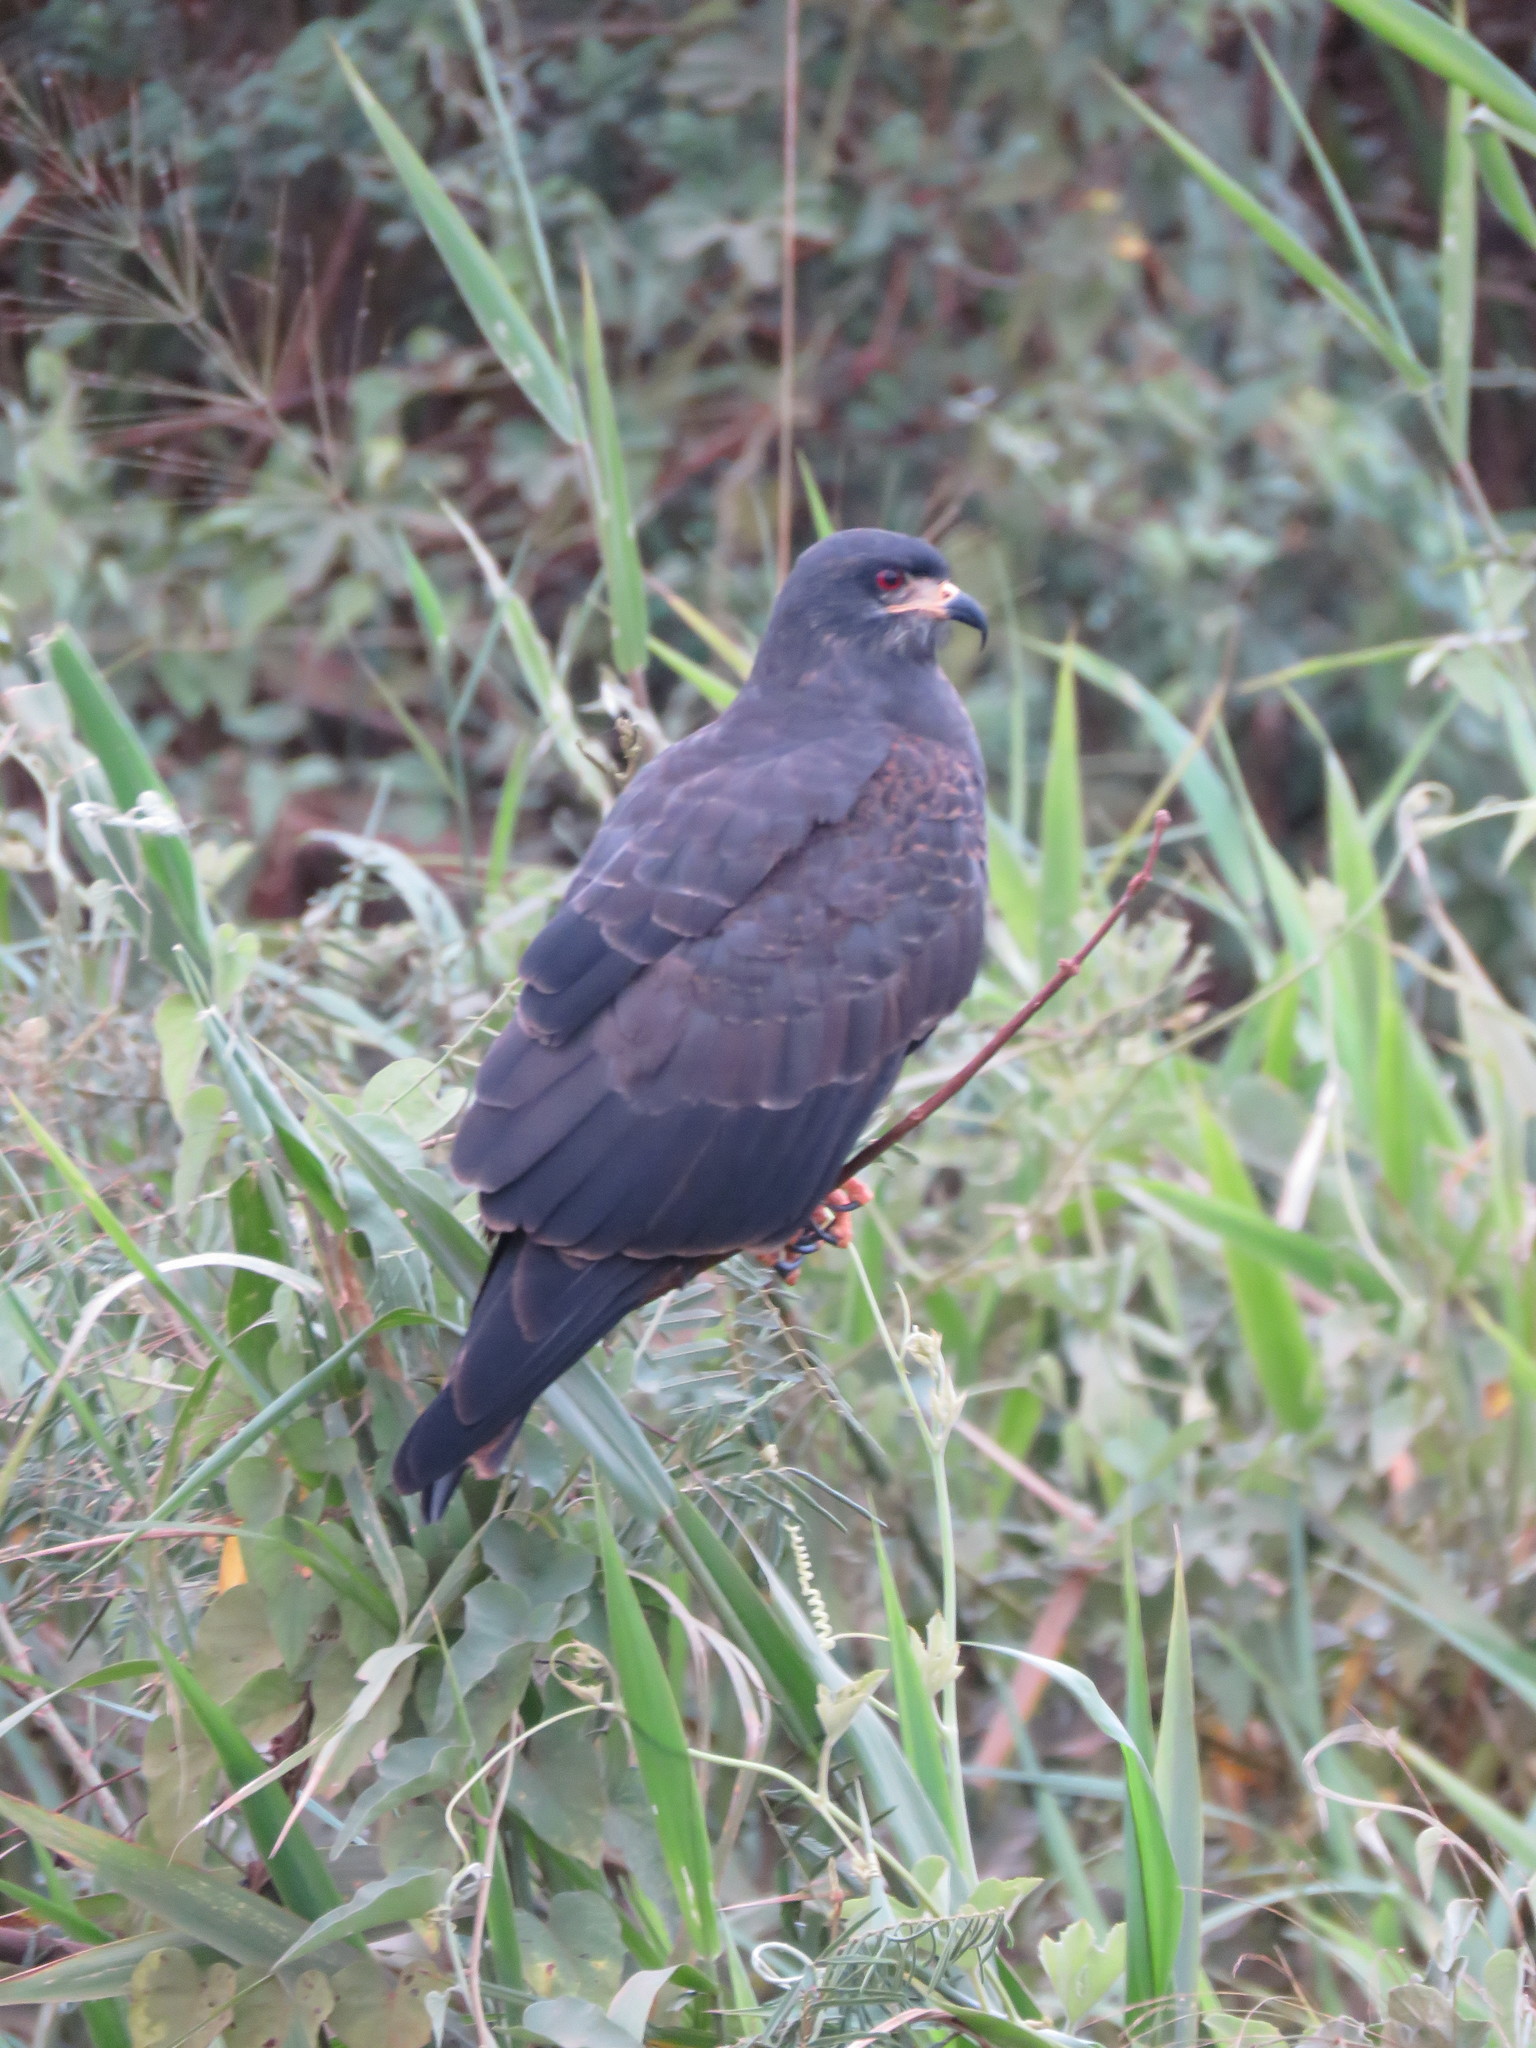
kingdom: Animalia
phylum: Chordata
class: Aves
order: Accipitriformes
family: Accipitridae
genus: Rostrhamus
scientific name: Rostrhamus sociabilis
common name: Snail kite
